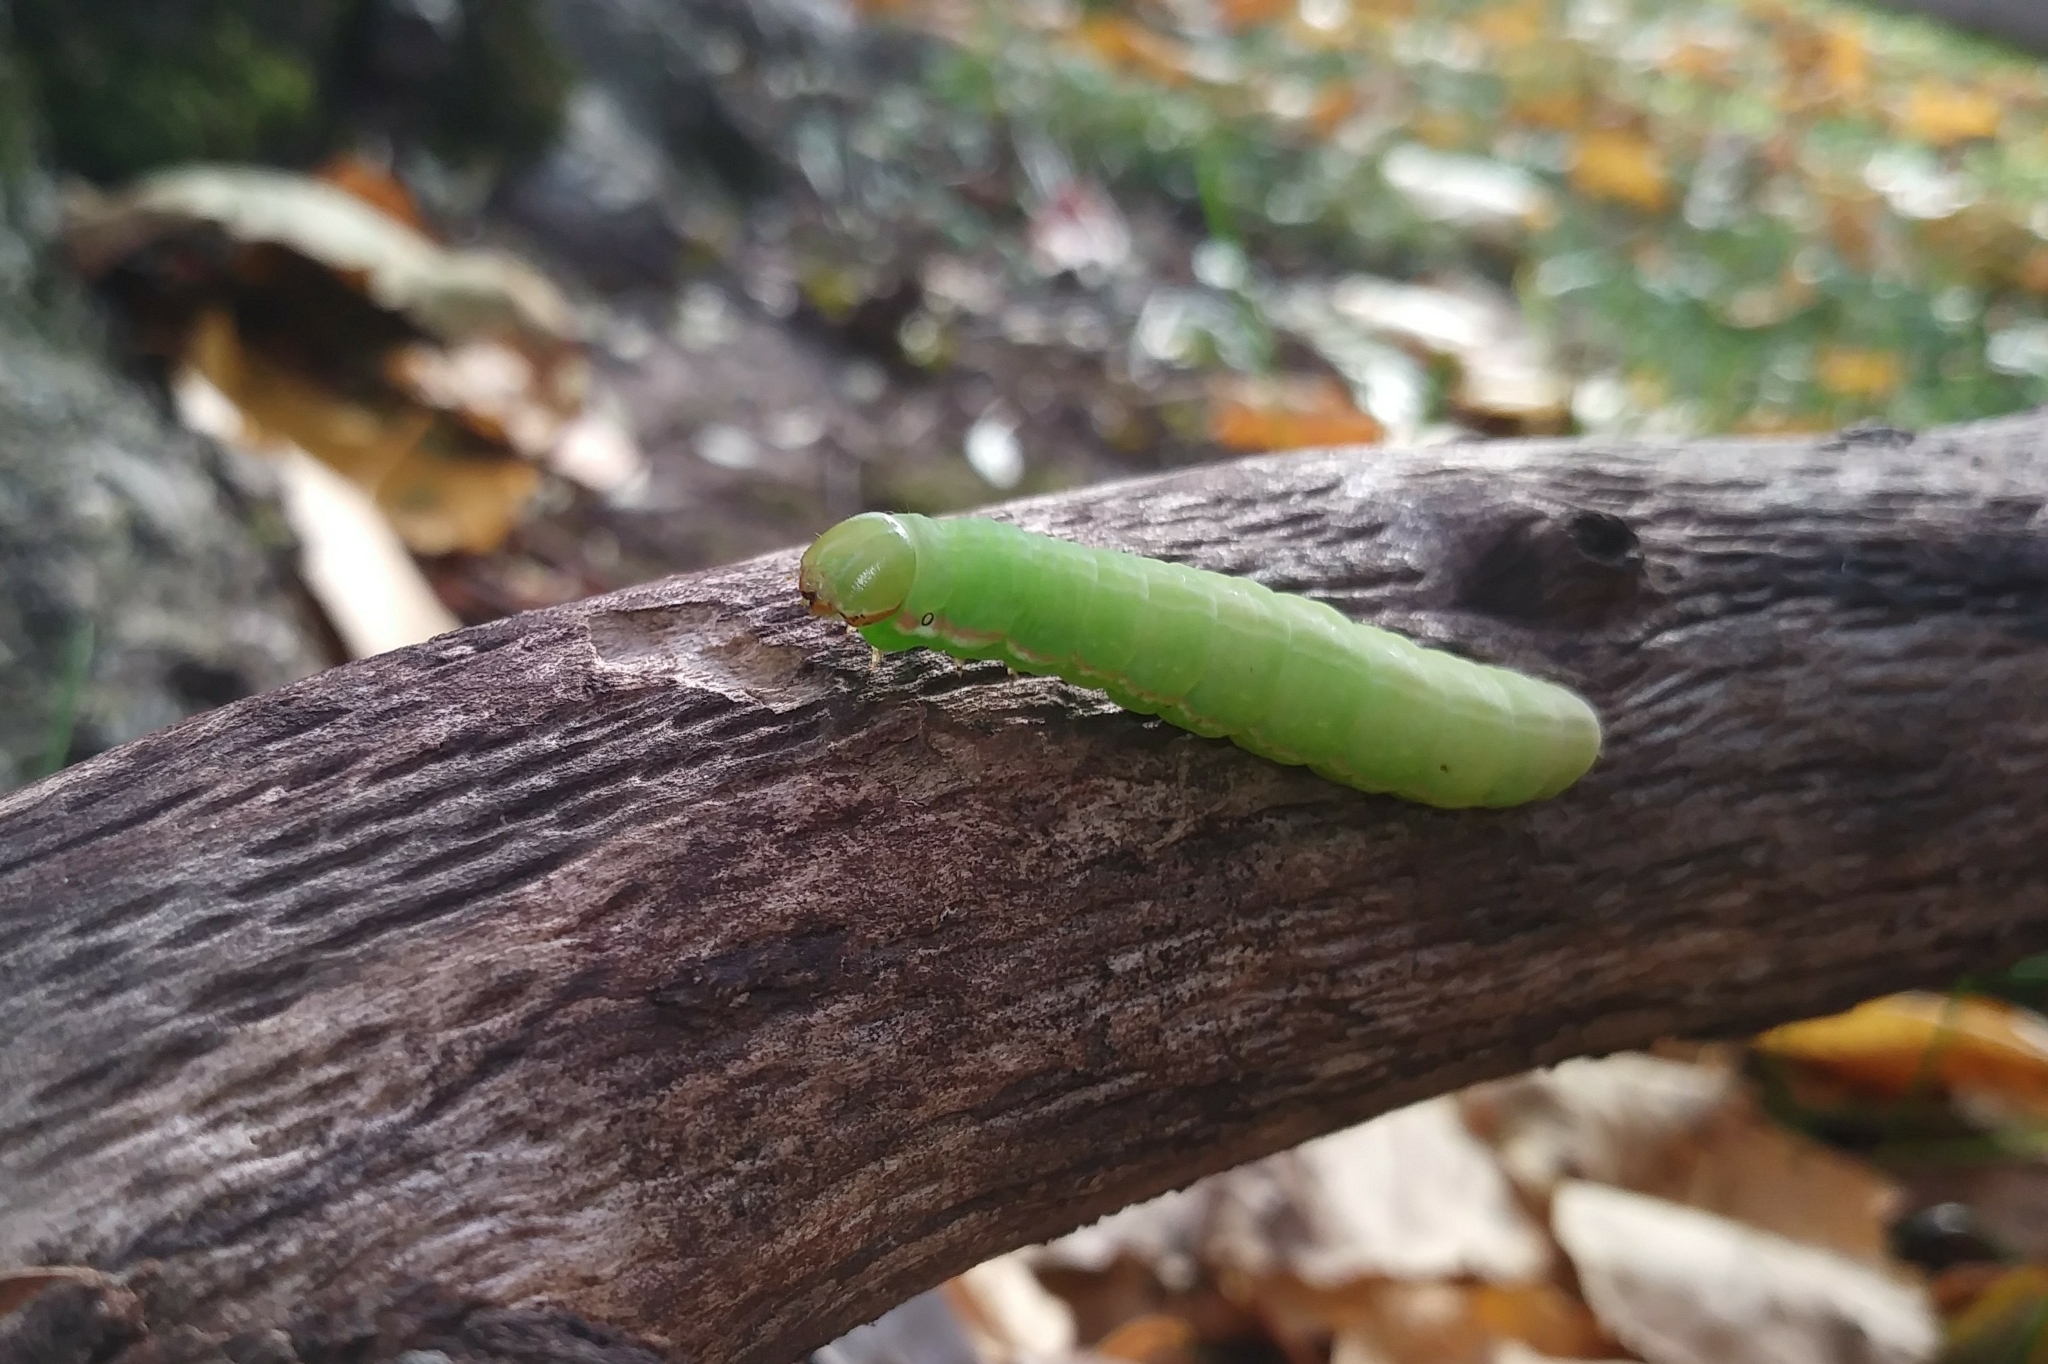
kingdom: Animalia
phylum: Arthropoda
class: Insecta
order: Lepidoptera
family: Notodontidae
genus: Peridea
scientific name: Peridea angulosa
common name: Angulose prominent
